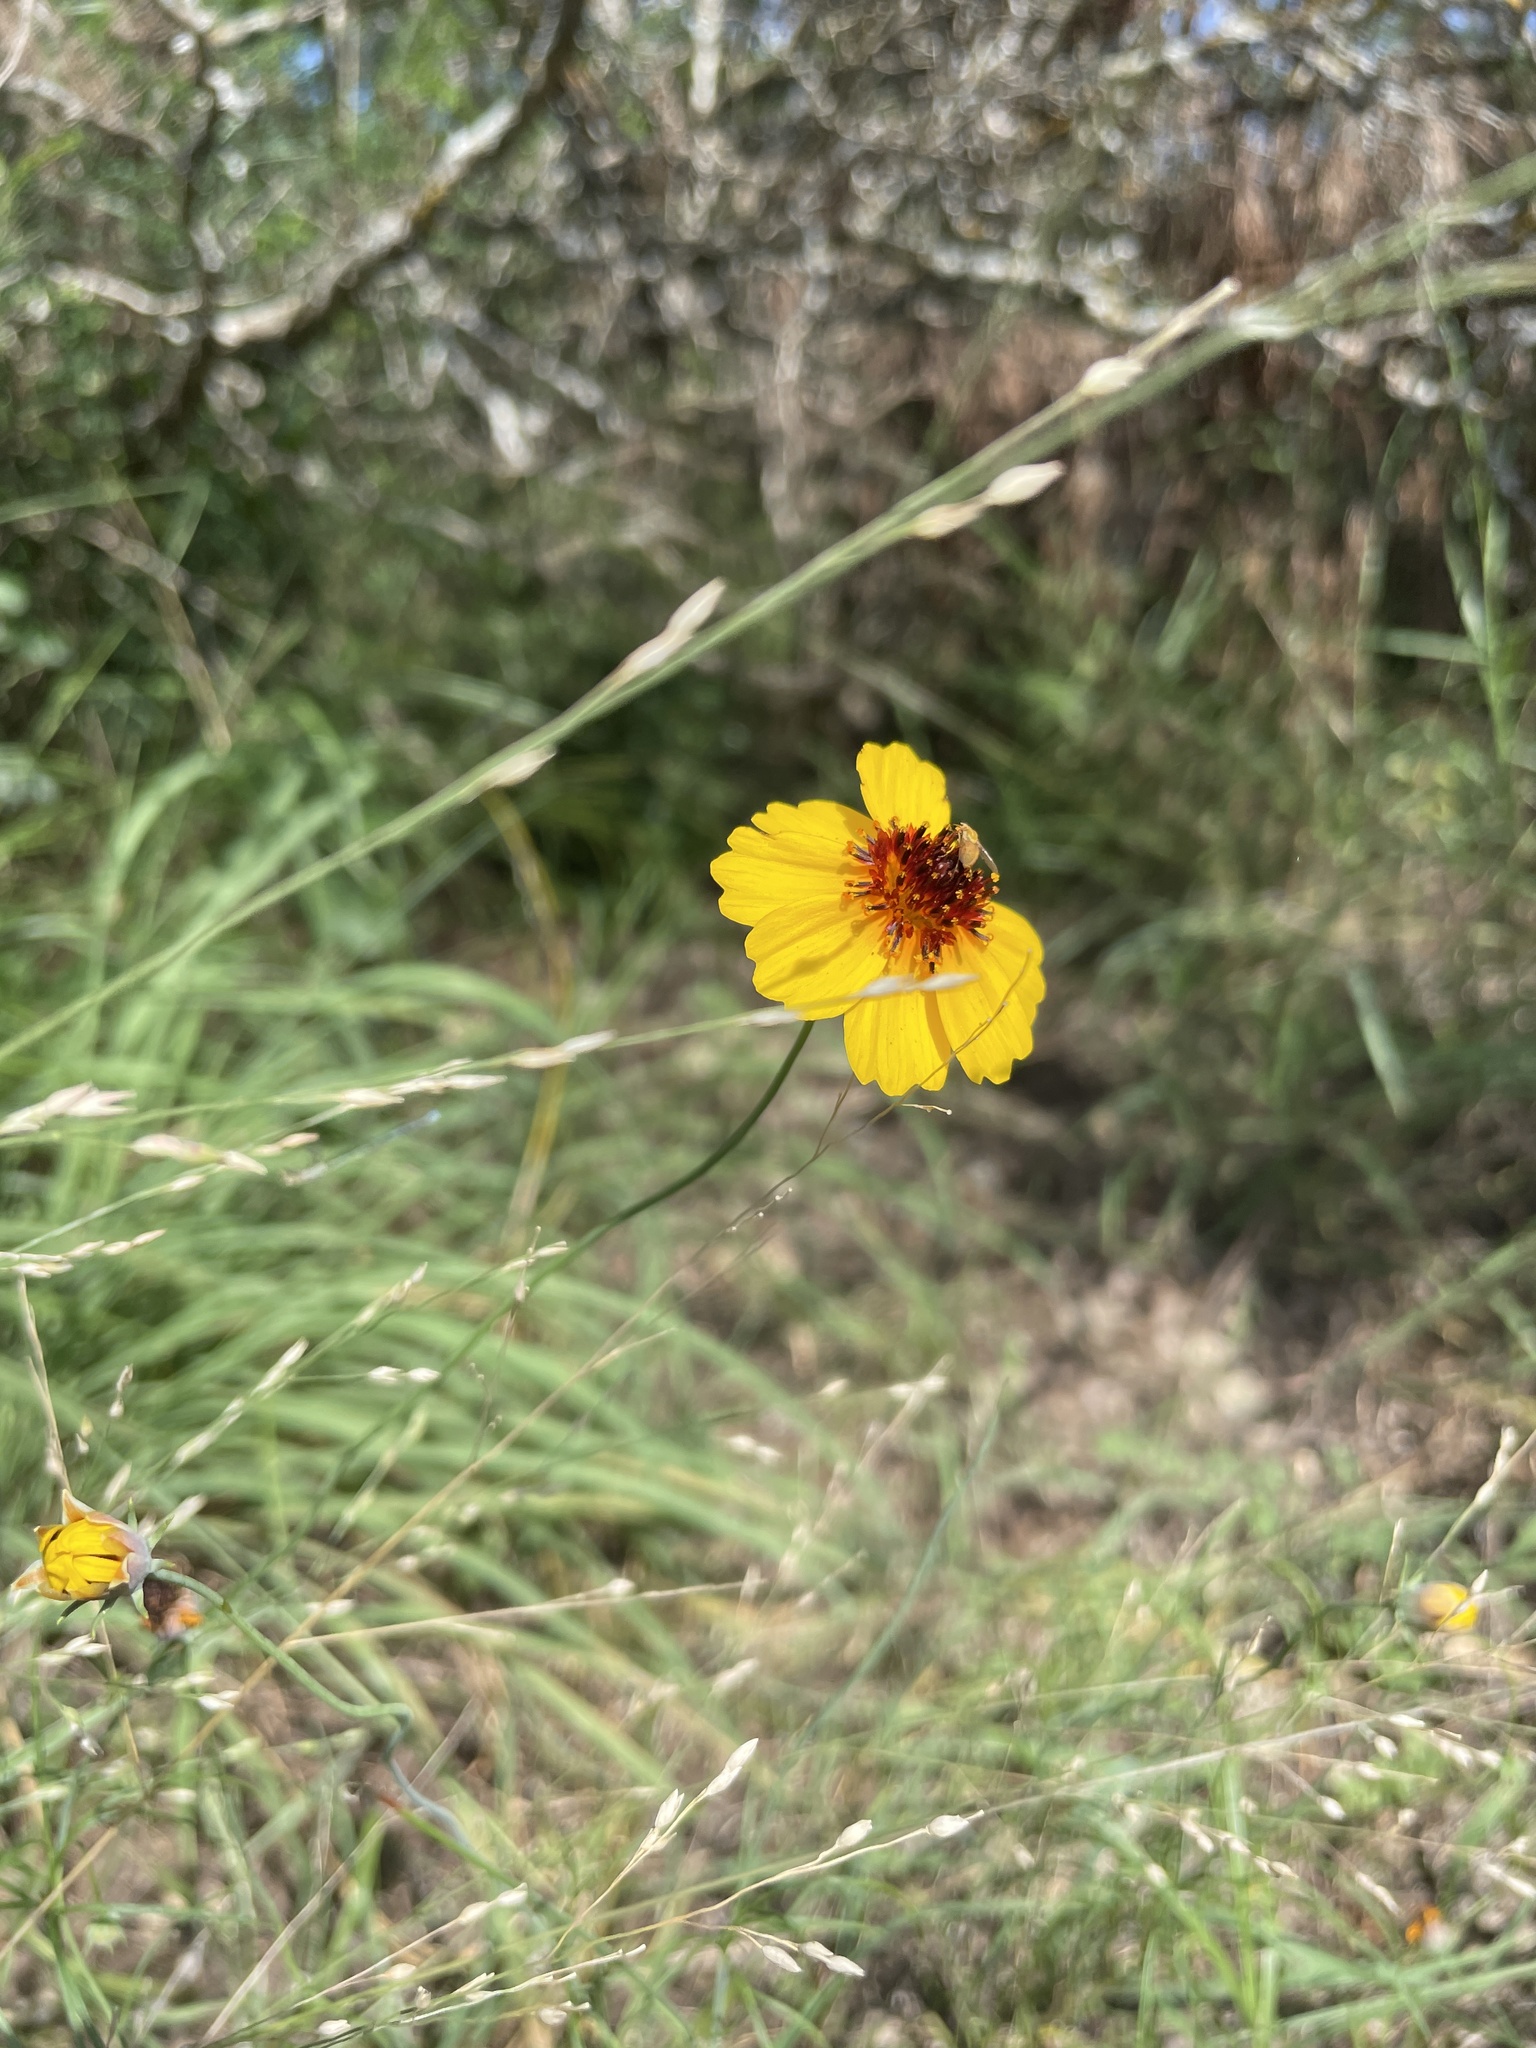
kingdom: Plantae
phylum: Tracheophyta
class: Magnoliopsida
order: Asterales
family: Asteraceae
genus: Thelesperma
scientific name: Thelesperma filifolium
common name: Stiff greenthread
